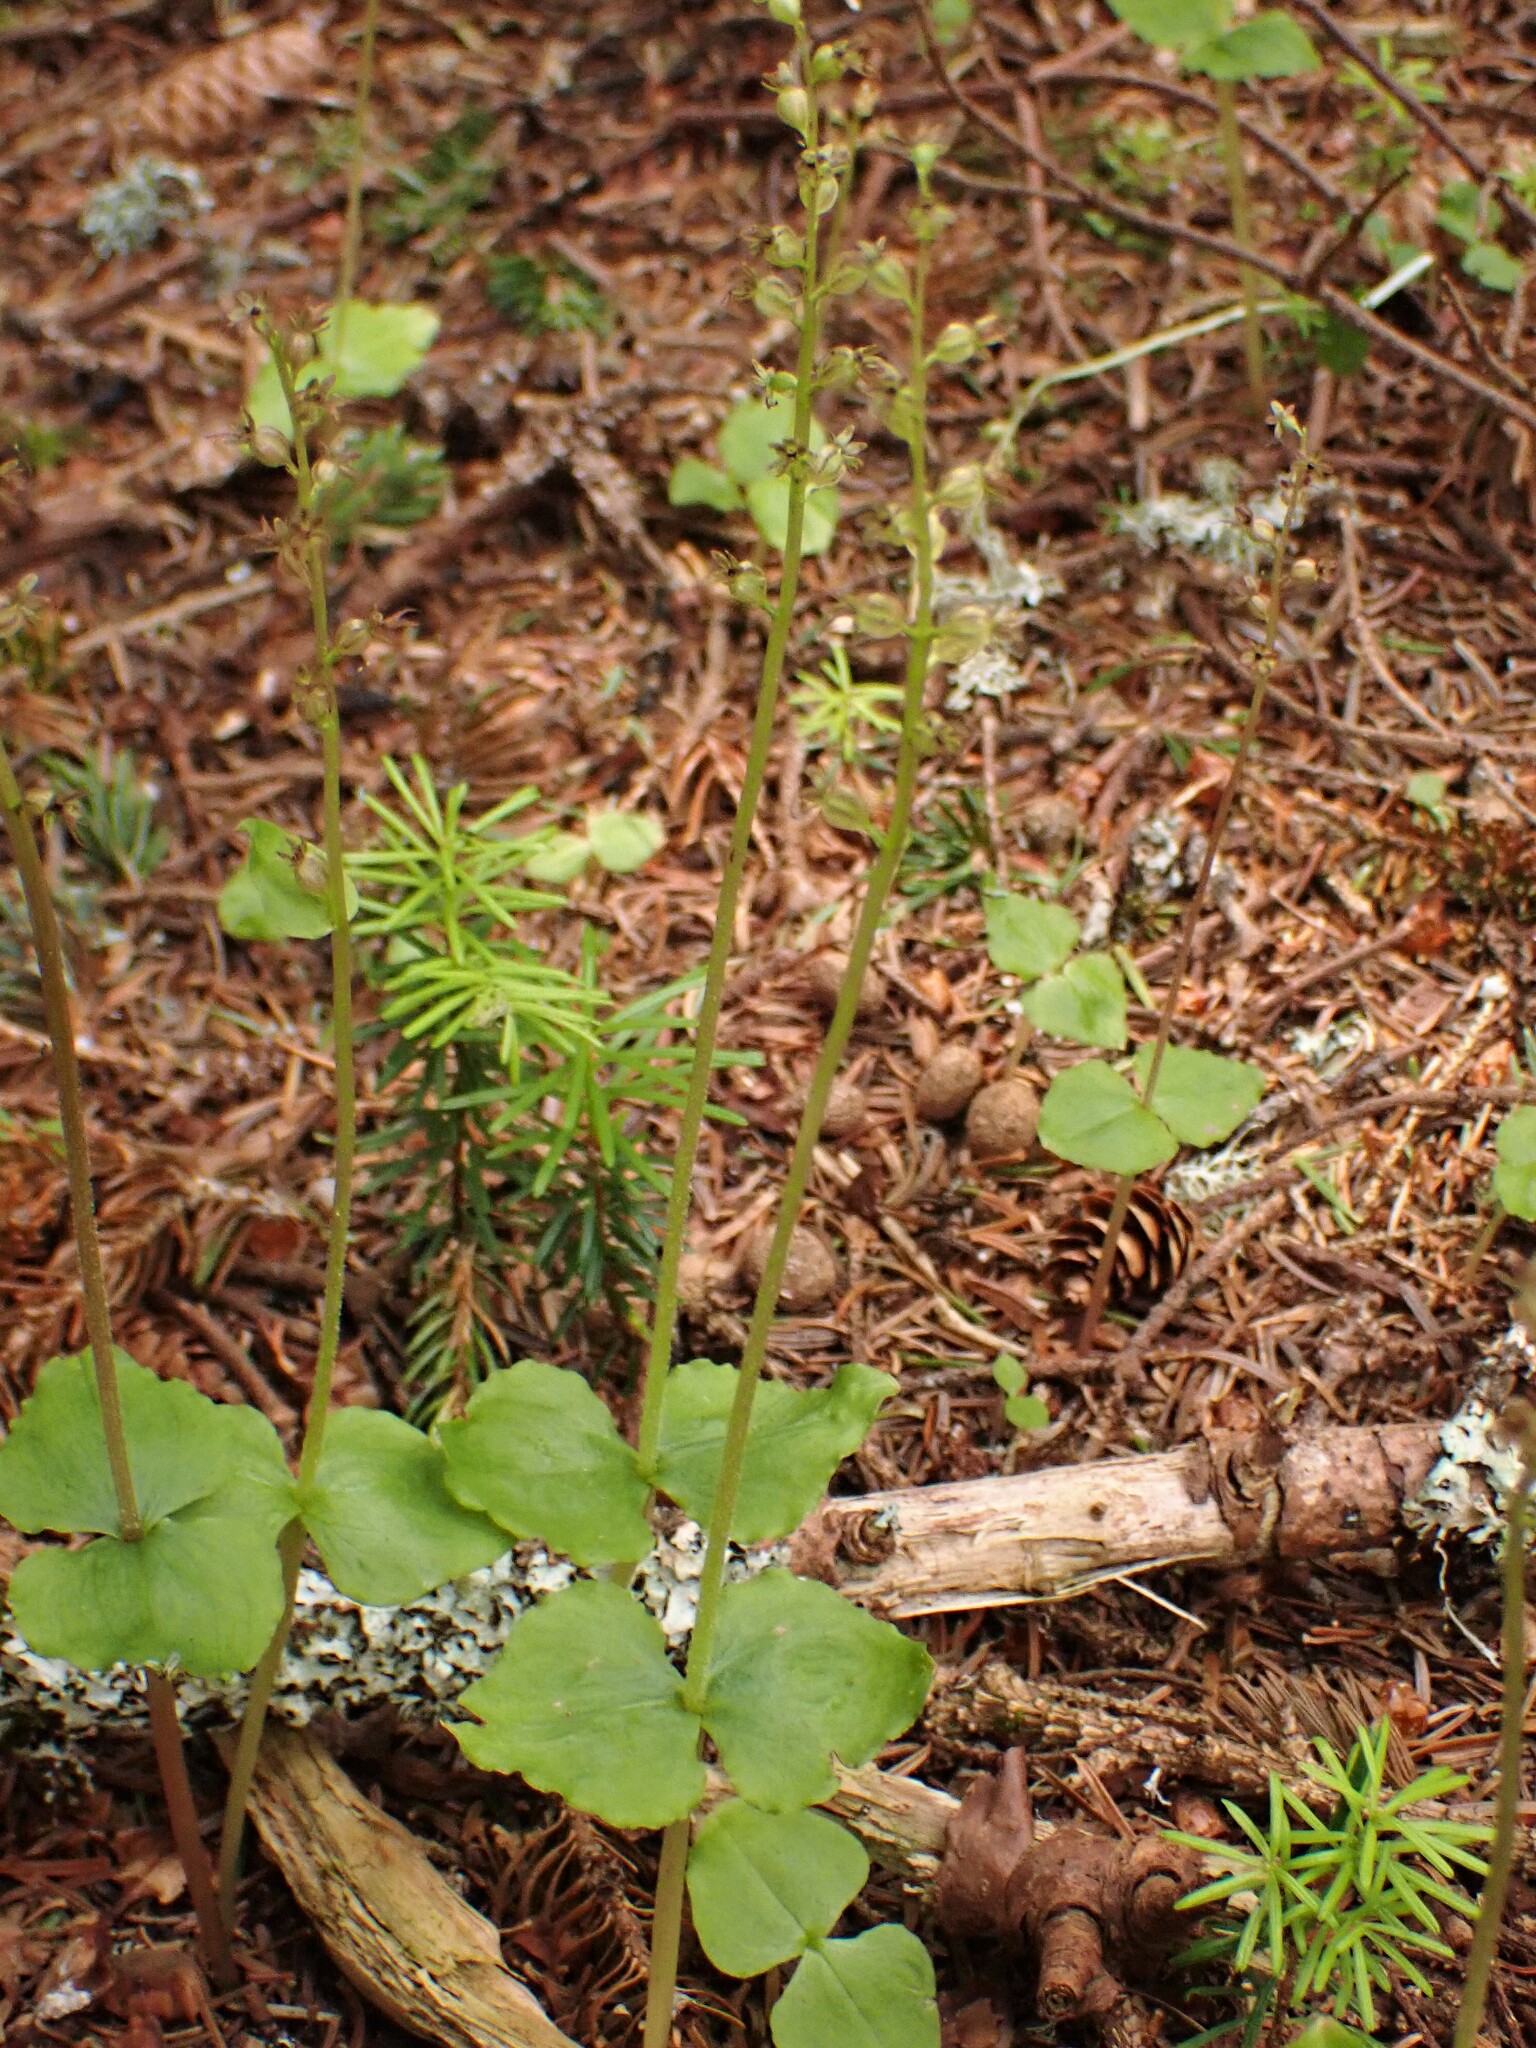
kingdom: Plantae
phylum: Tracheophyta
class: Liliopsida
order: Asparagales
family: Orchidaceae
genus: Neottia
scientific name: Neottia cordata
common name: Lesser twayblade
